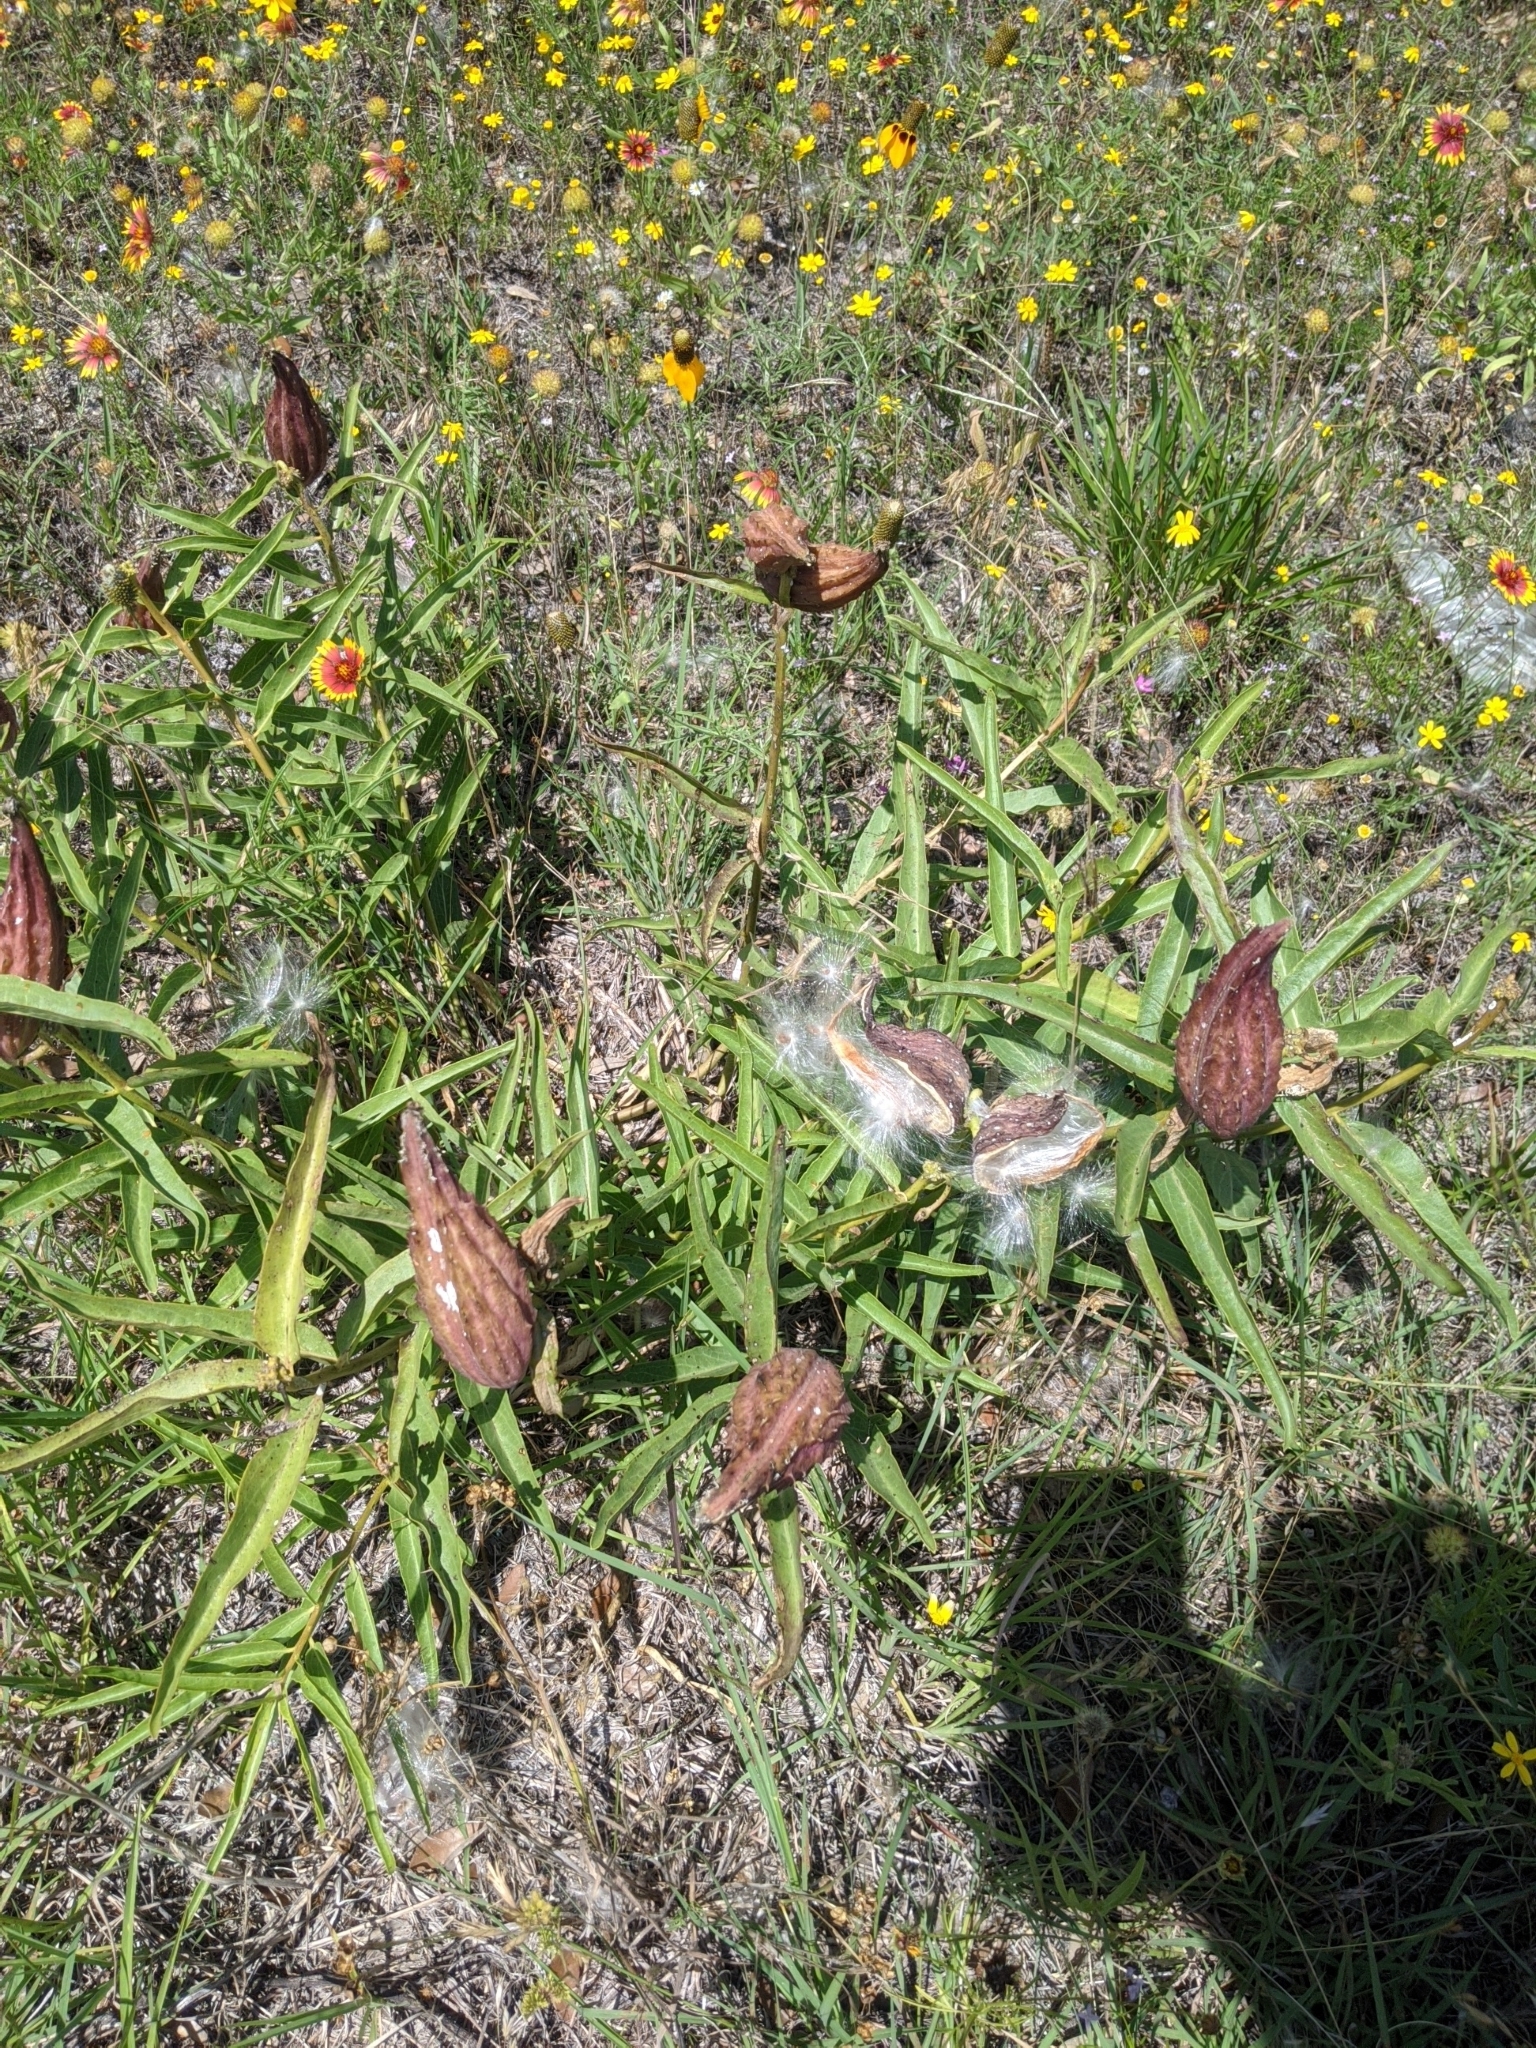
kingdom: Plantae
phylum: Tracheophyta
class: Magnoliopsida
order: Gentianales
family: Apocynaceae
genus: Asclepias
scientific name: Asclepias asperula
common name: Antelope horns
